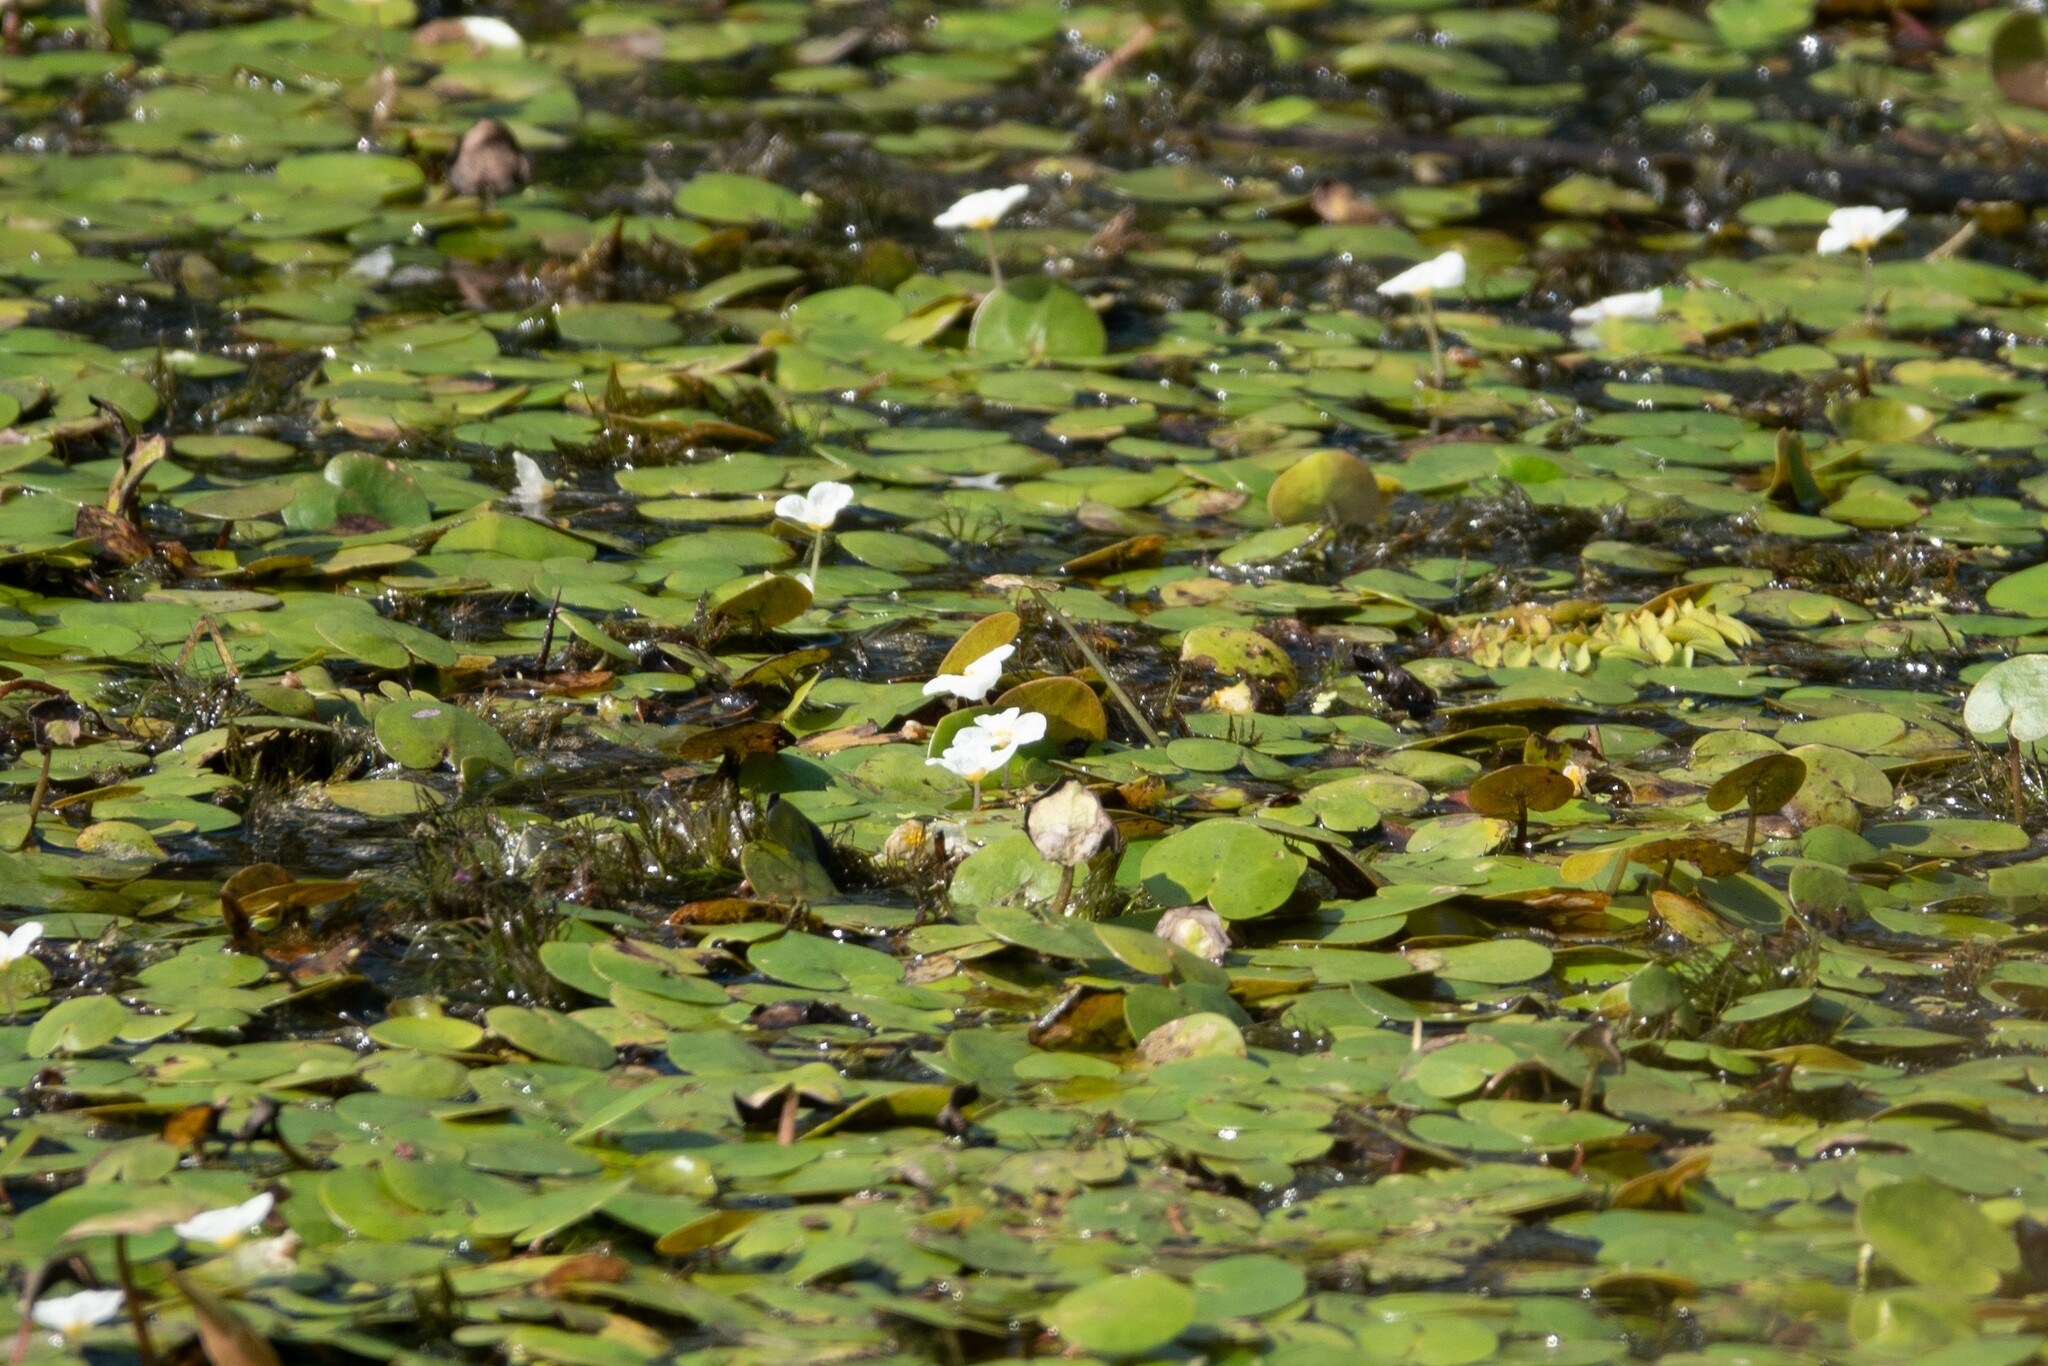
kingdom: Plantae
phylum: Tracheophyta
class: Liliopsida
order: Alismatales
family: Hydrocharitaceae
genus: Hydrocharis
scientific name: Hydrocharis morsus-ranae
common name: Frogbit
